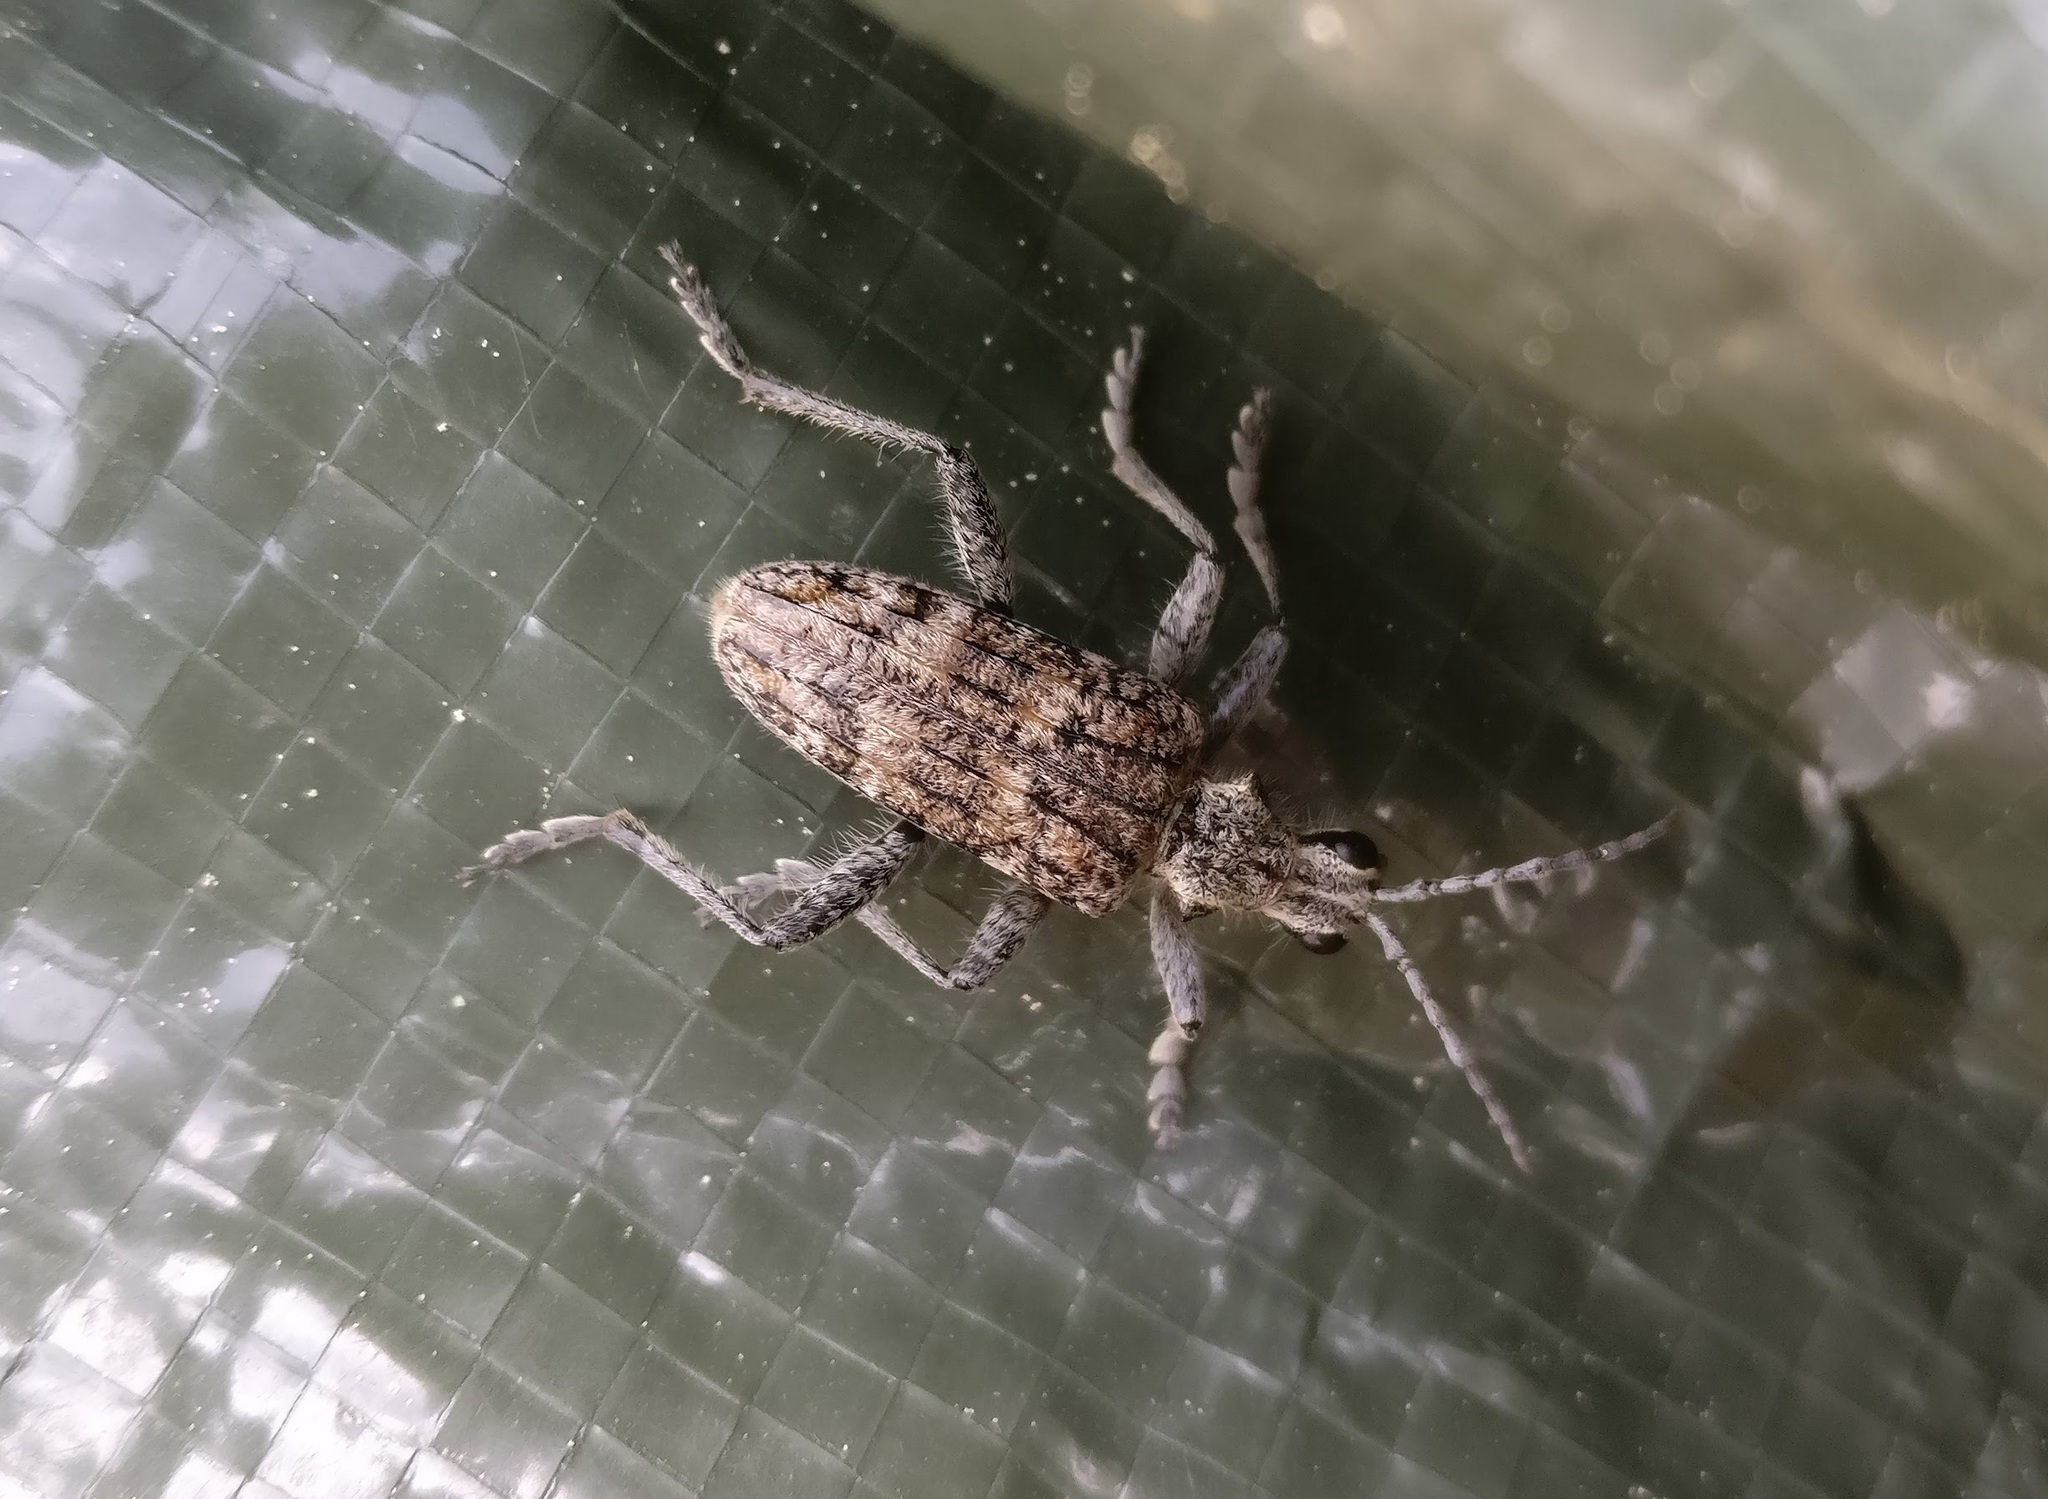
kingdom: Animalia
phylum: Arthropoda
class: Insecta
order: Coleoptera
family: Cerambycidae
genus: Rhagium
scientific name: Rhagium inquisitor
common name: Ribbed pine borer
